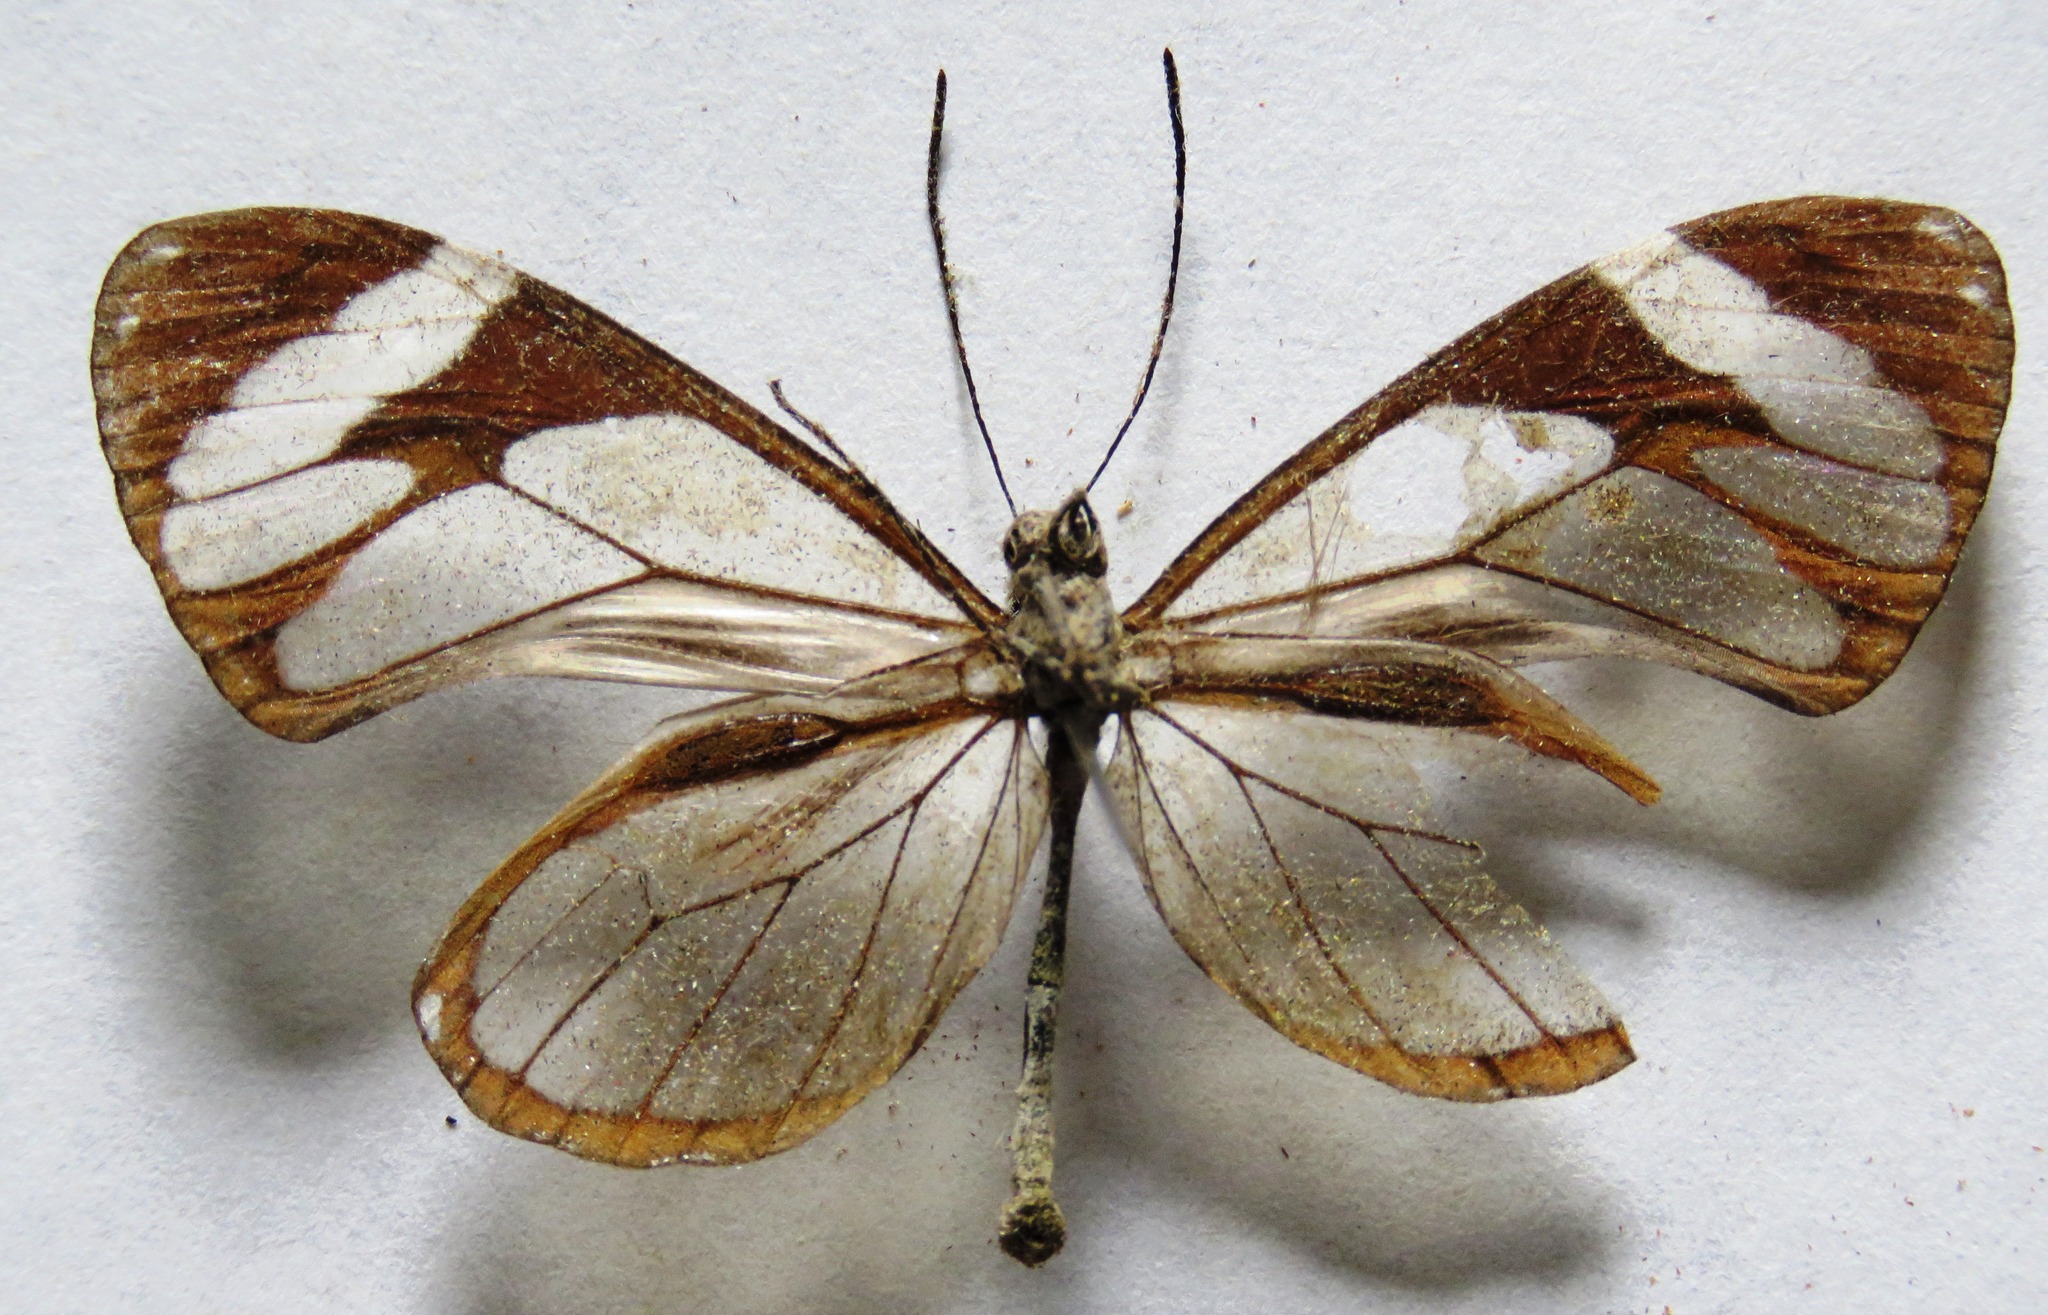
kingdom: Animalia
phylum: Arthropoda
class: Insecta
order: Lepidoptera
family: Nymphalidae
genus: Ithomia
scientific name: Ithomia patilla
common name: Patilla clearwing
